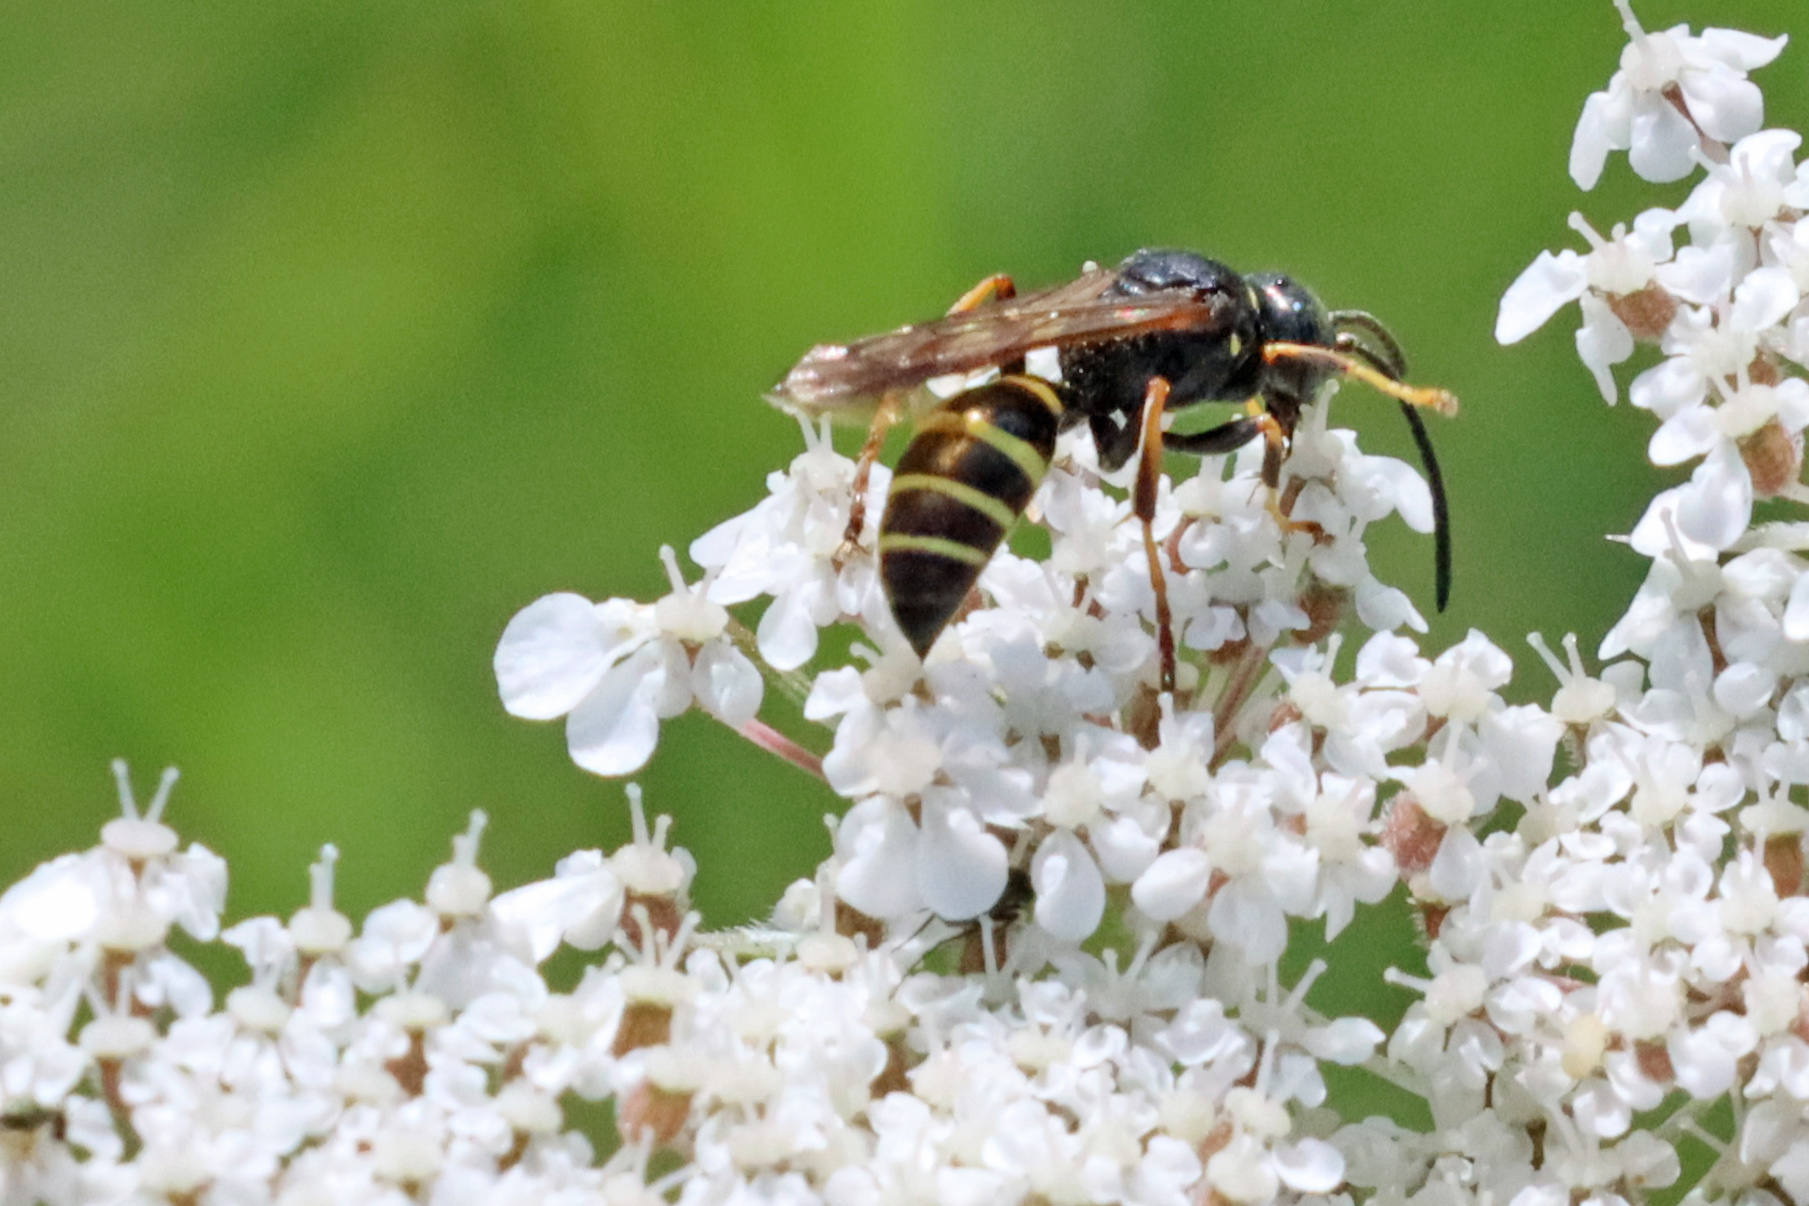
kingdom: Animalia
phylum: Arthropoda
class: Insecta
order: Hymenoptera
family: Crabronidae
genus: Gorytes
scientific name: Gorytes quadrifasciatus
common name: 4-banded digger wasp
